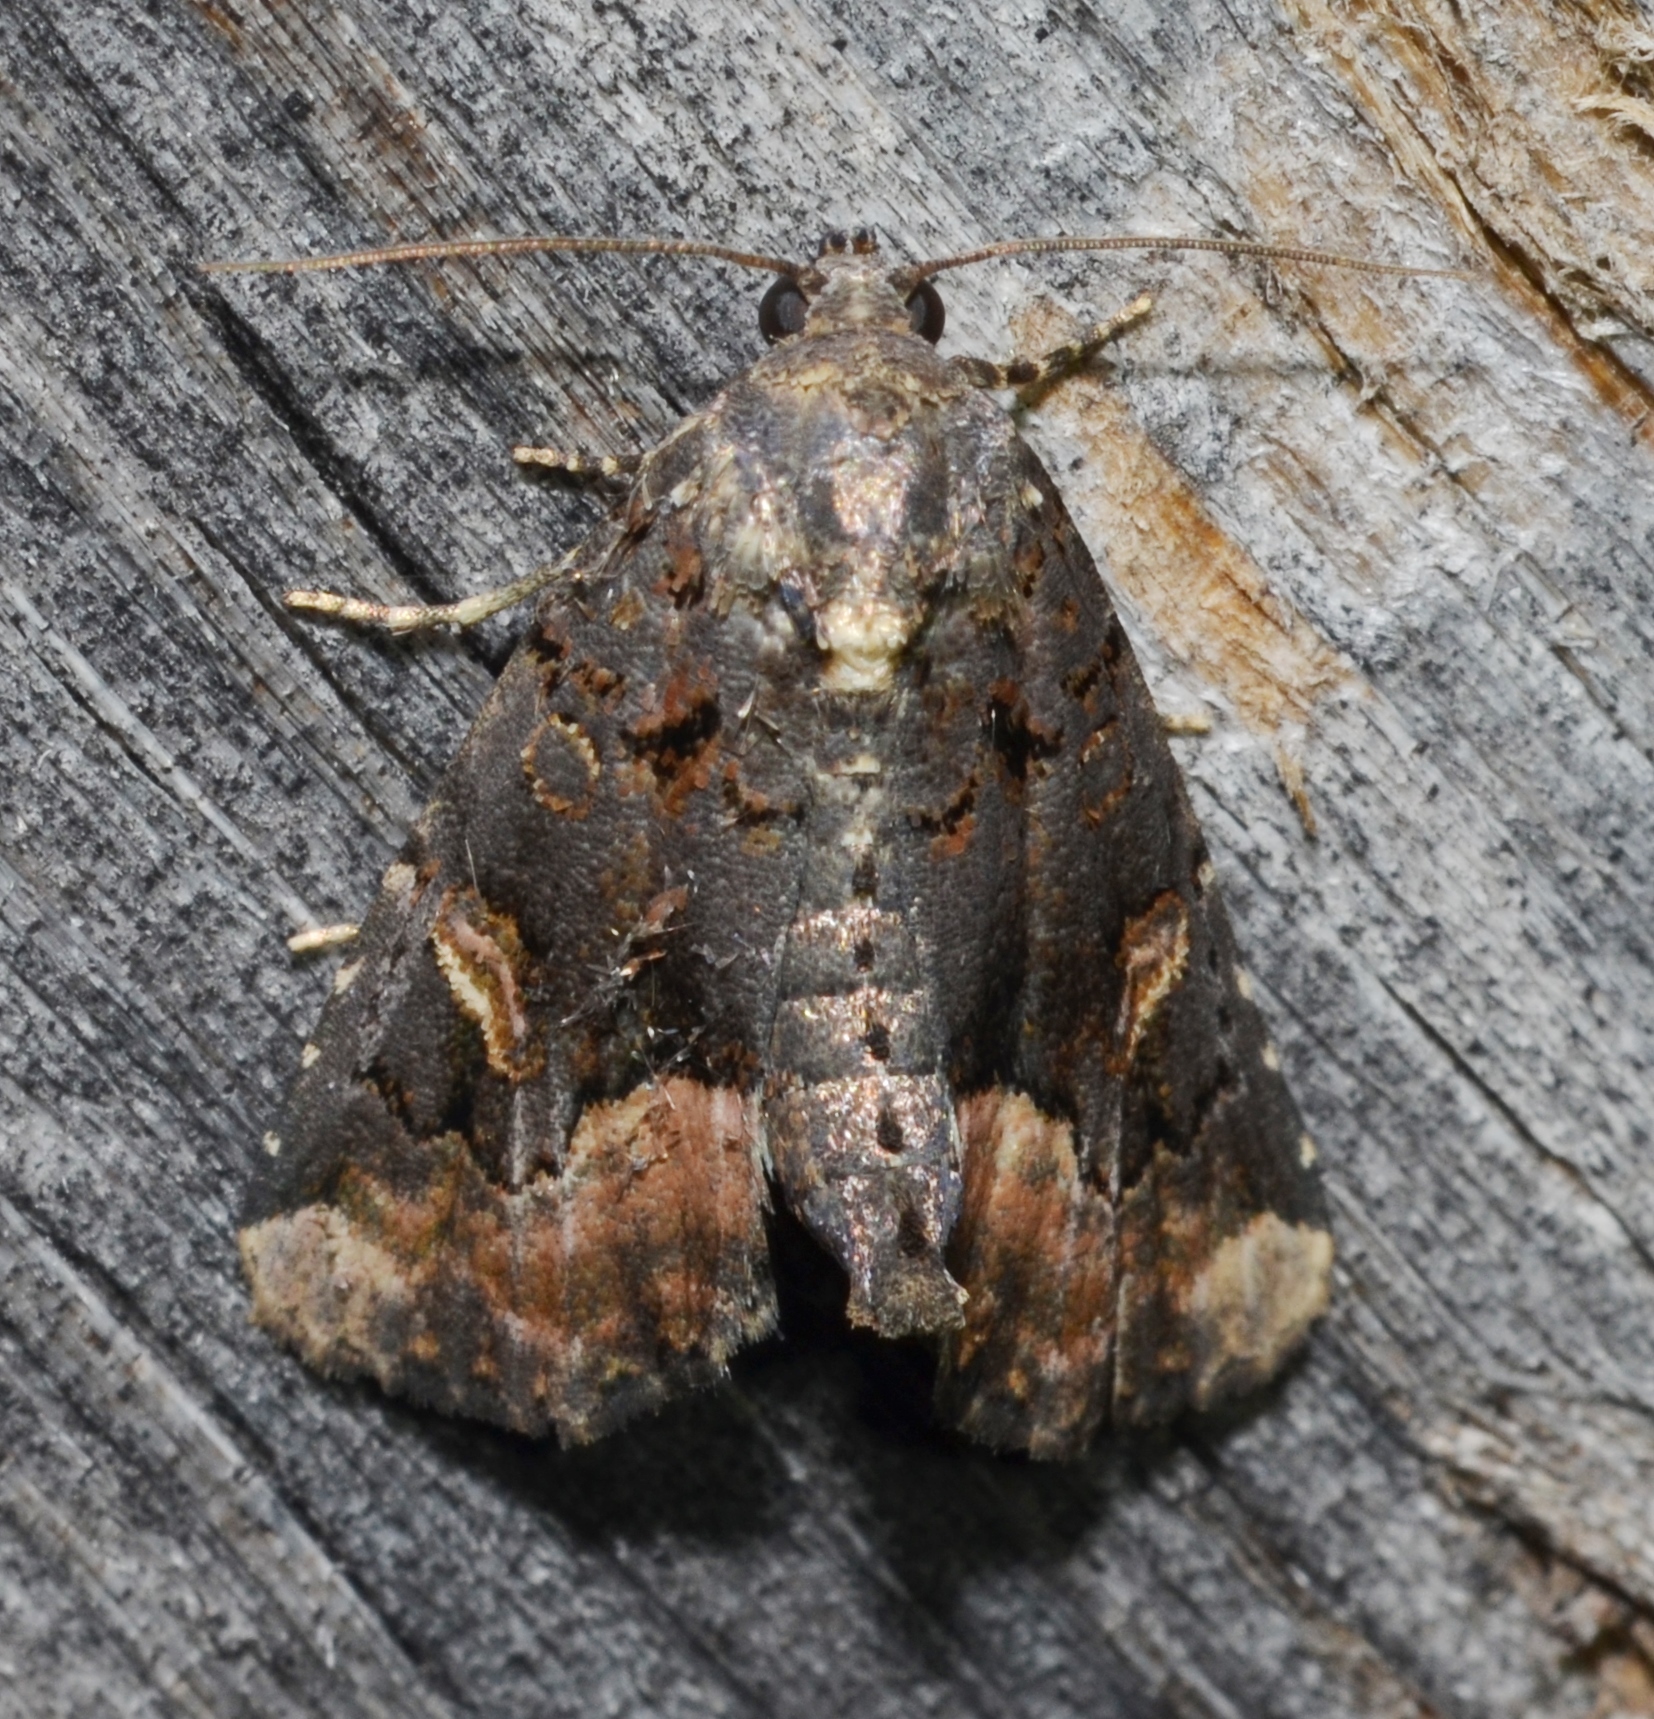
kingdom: Animalia
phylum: Arthropoda
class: Insecta
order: Lepidoptera
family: Noctuidae
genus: Homophoberia
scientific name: Homophoberia apicosa
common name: Black wedge-spot
